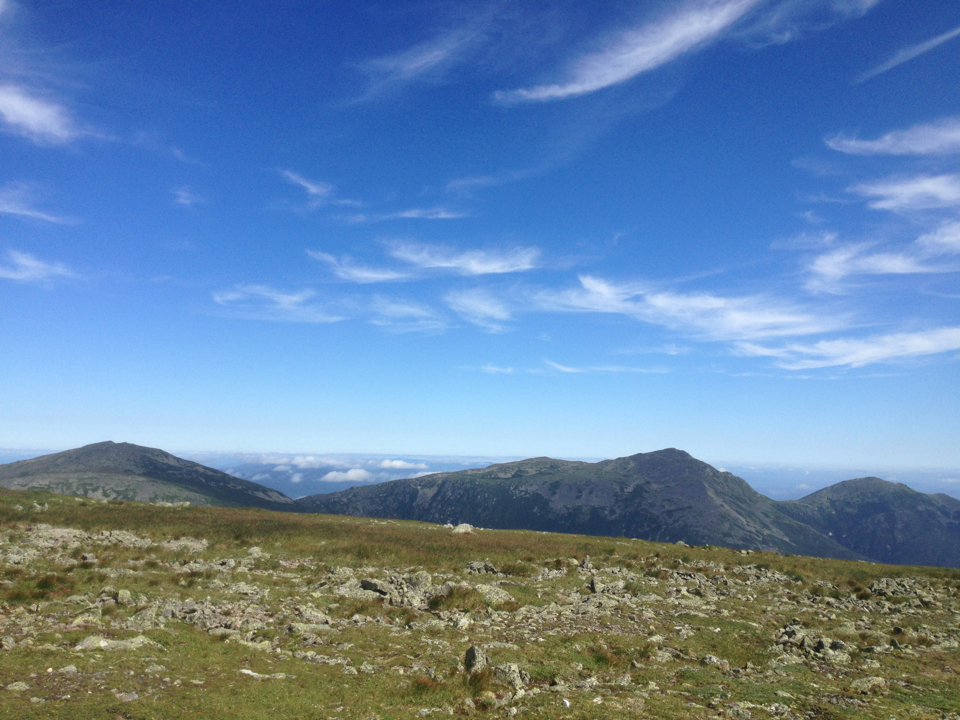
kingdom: Plantae
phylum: Tracheophyta
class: Liliopsida
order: Poales
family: Cyperaceae
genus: Carex
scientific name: Carex bigelowii
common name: Stiff sedge
